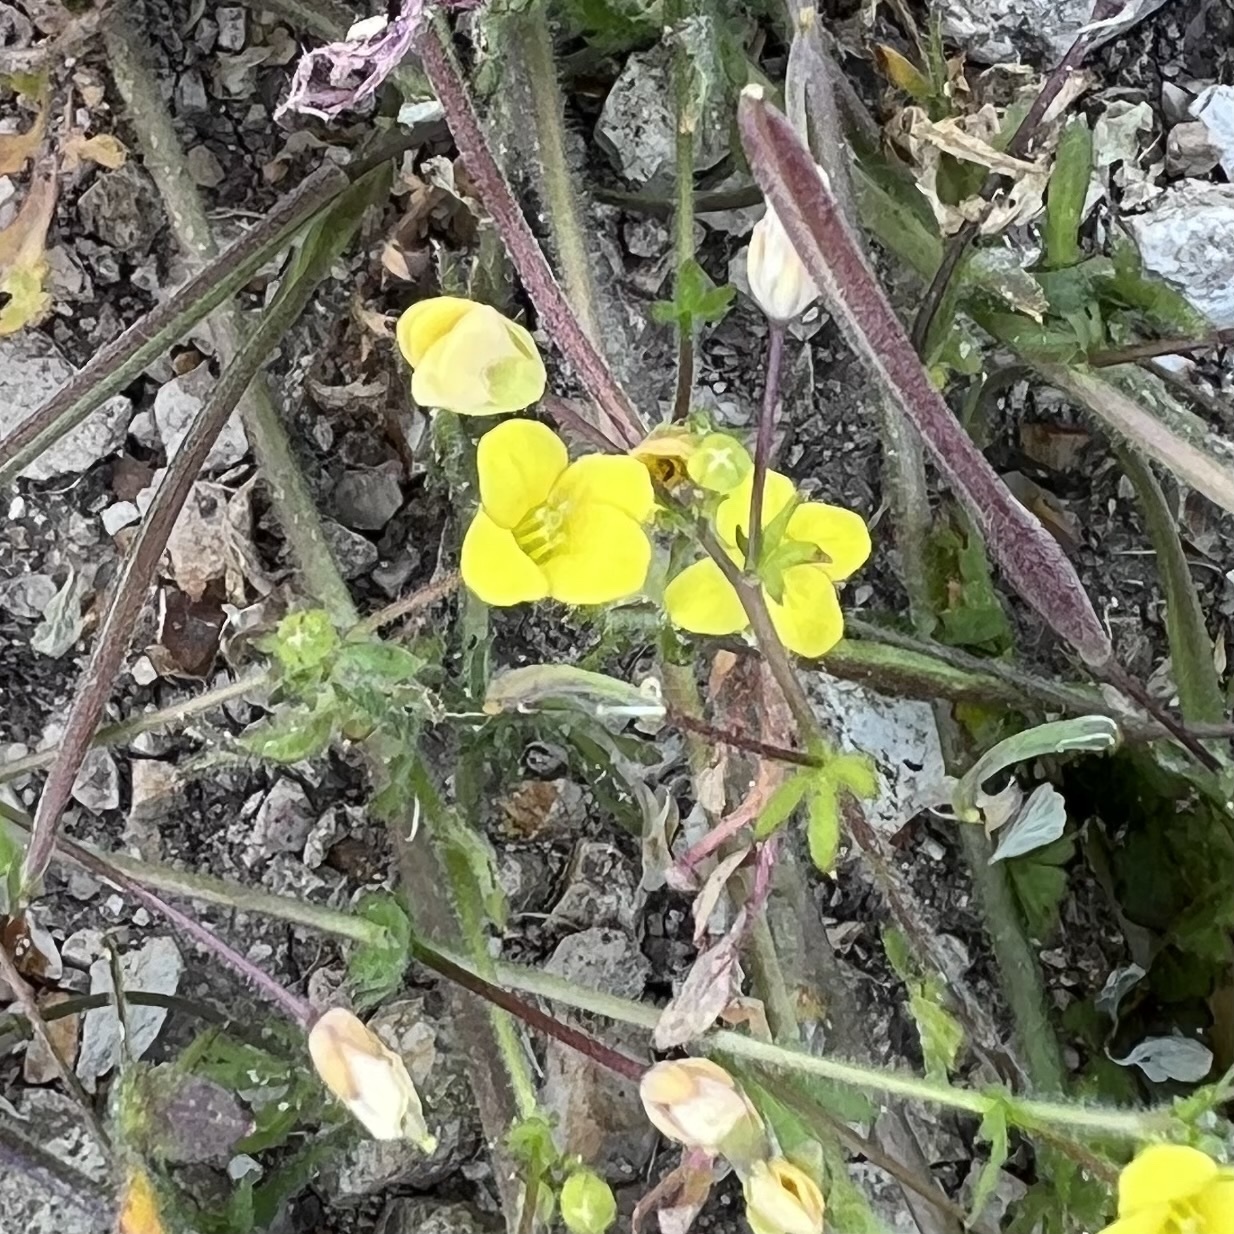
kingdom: Plantae
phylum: Tracheophyta
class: Magnoliopsida
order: Brassicales
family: Brassicaceae
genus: Tropidocarpum
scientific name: Tropidocarpum gracile
